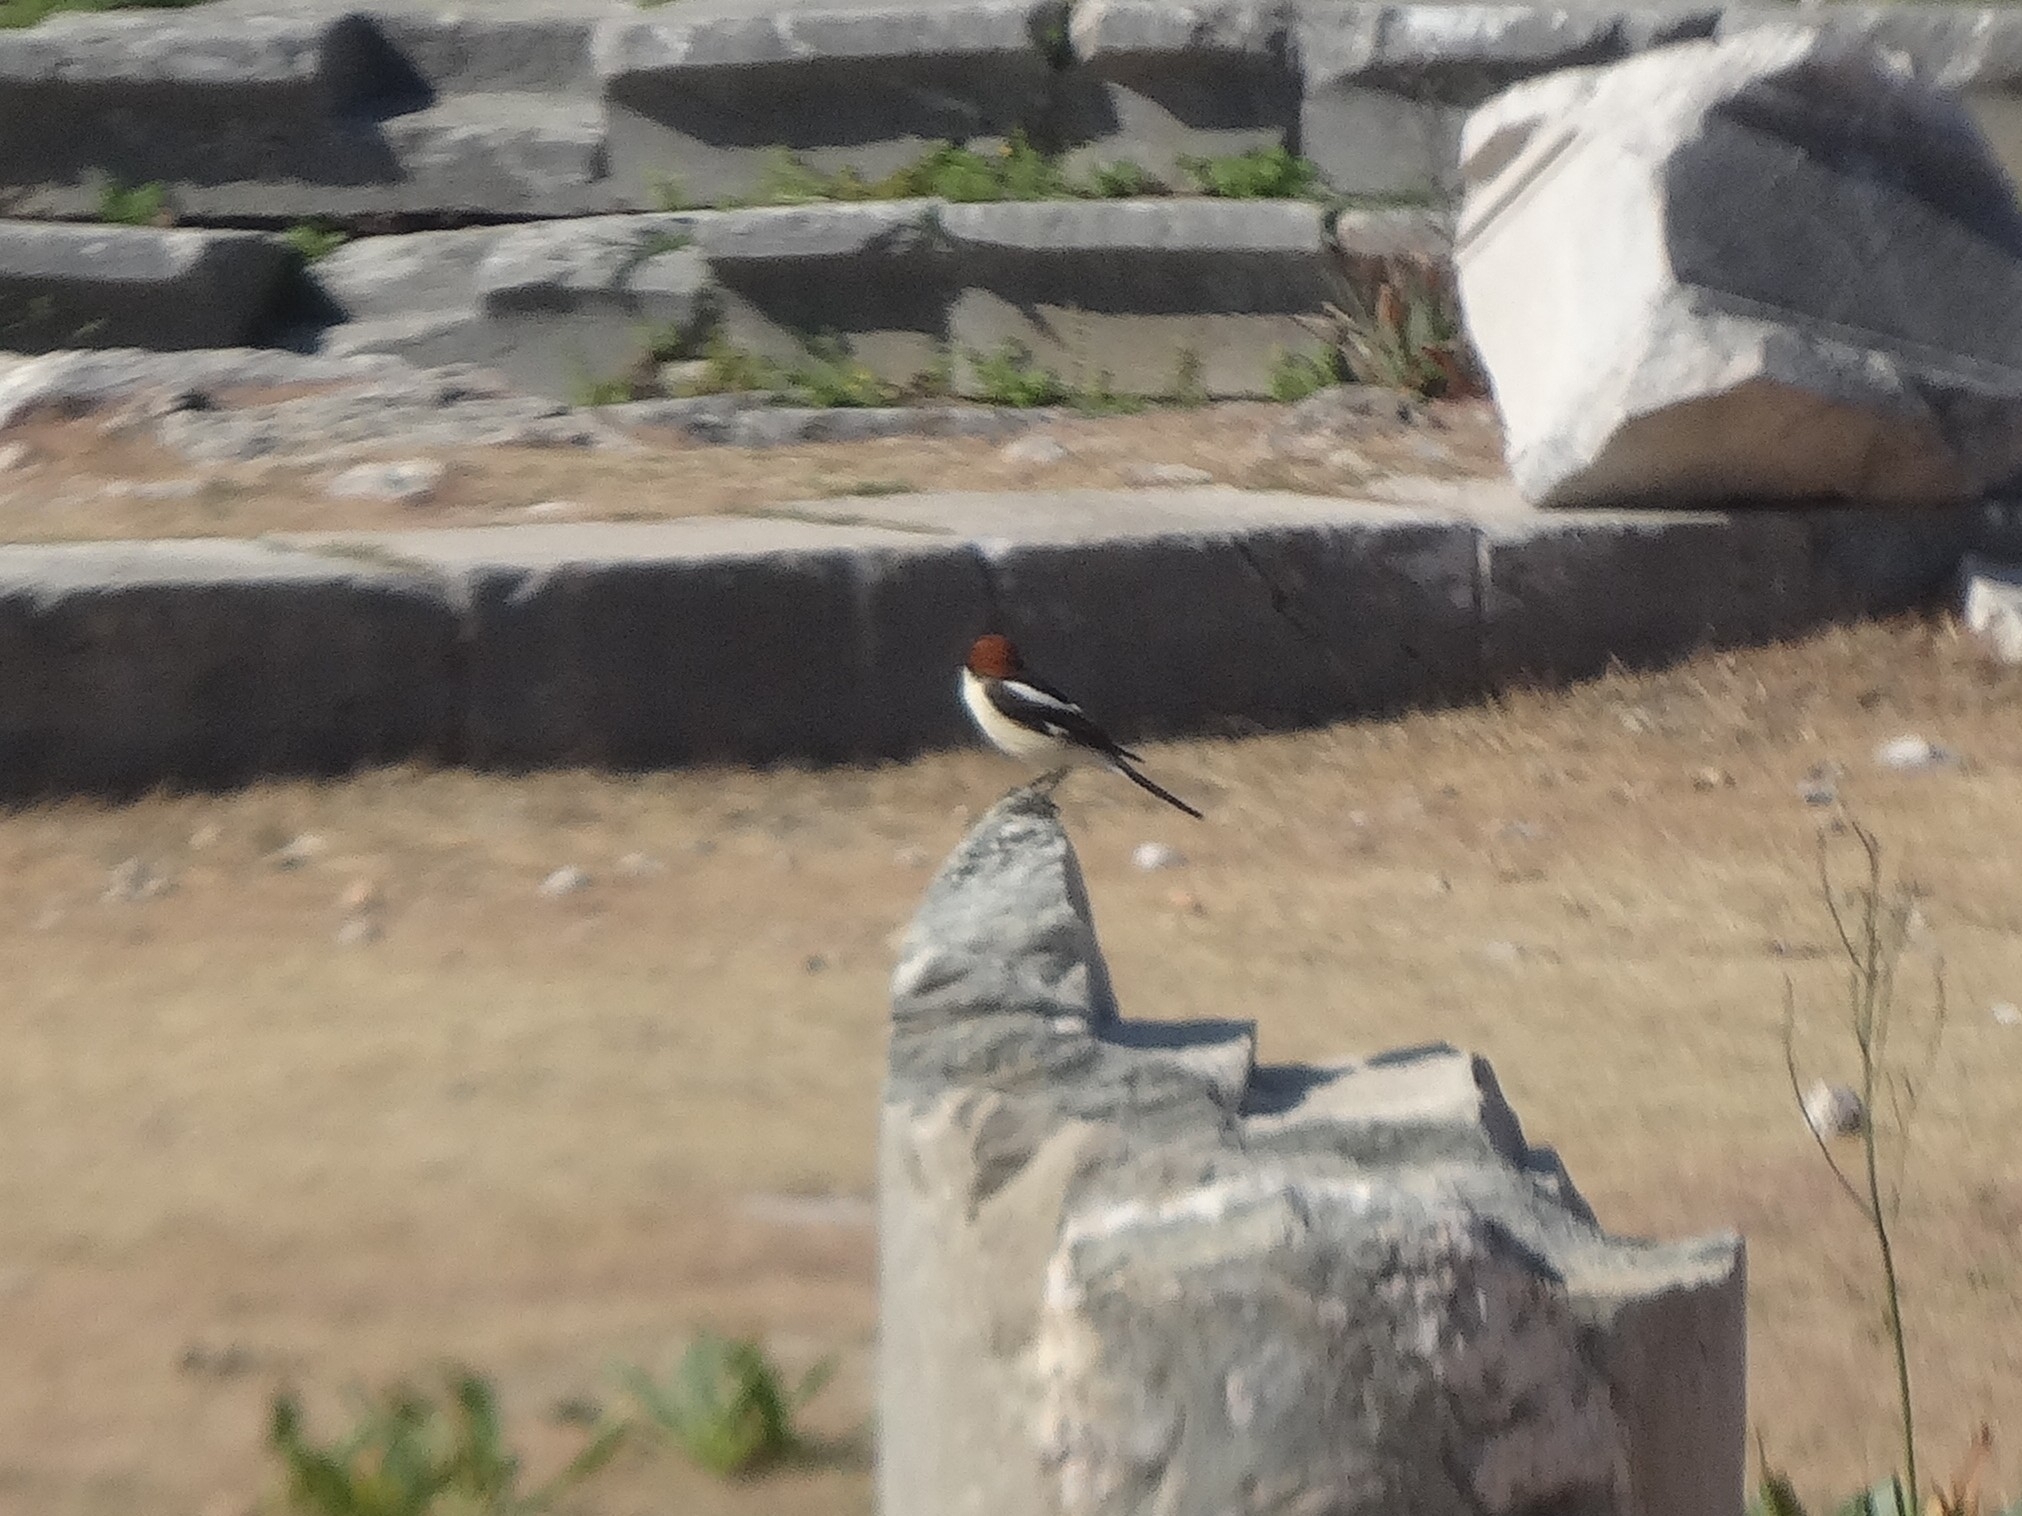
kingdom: Animalia
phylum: Chordata
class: Aves
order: Passeriformes
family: Laniidae
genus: Lanius
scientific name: Lanius senator
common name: Woodchat shrike
